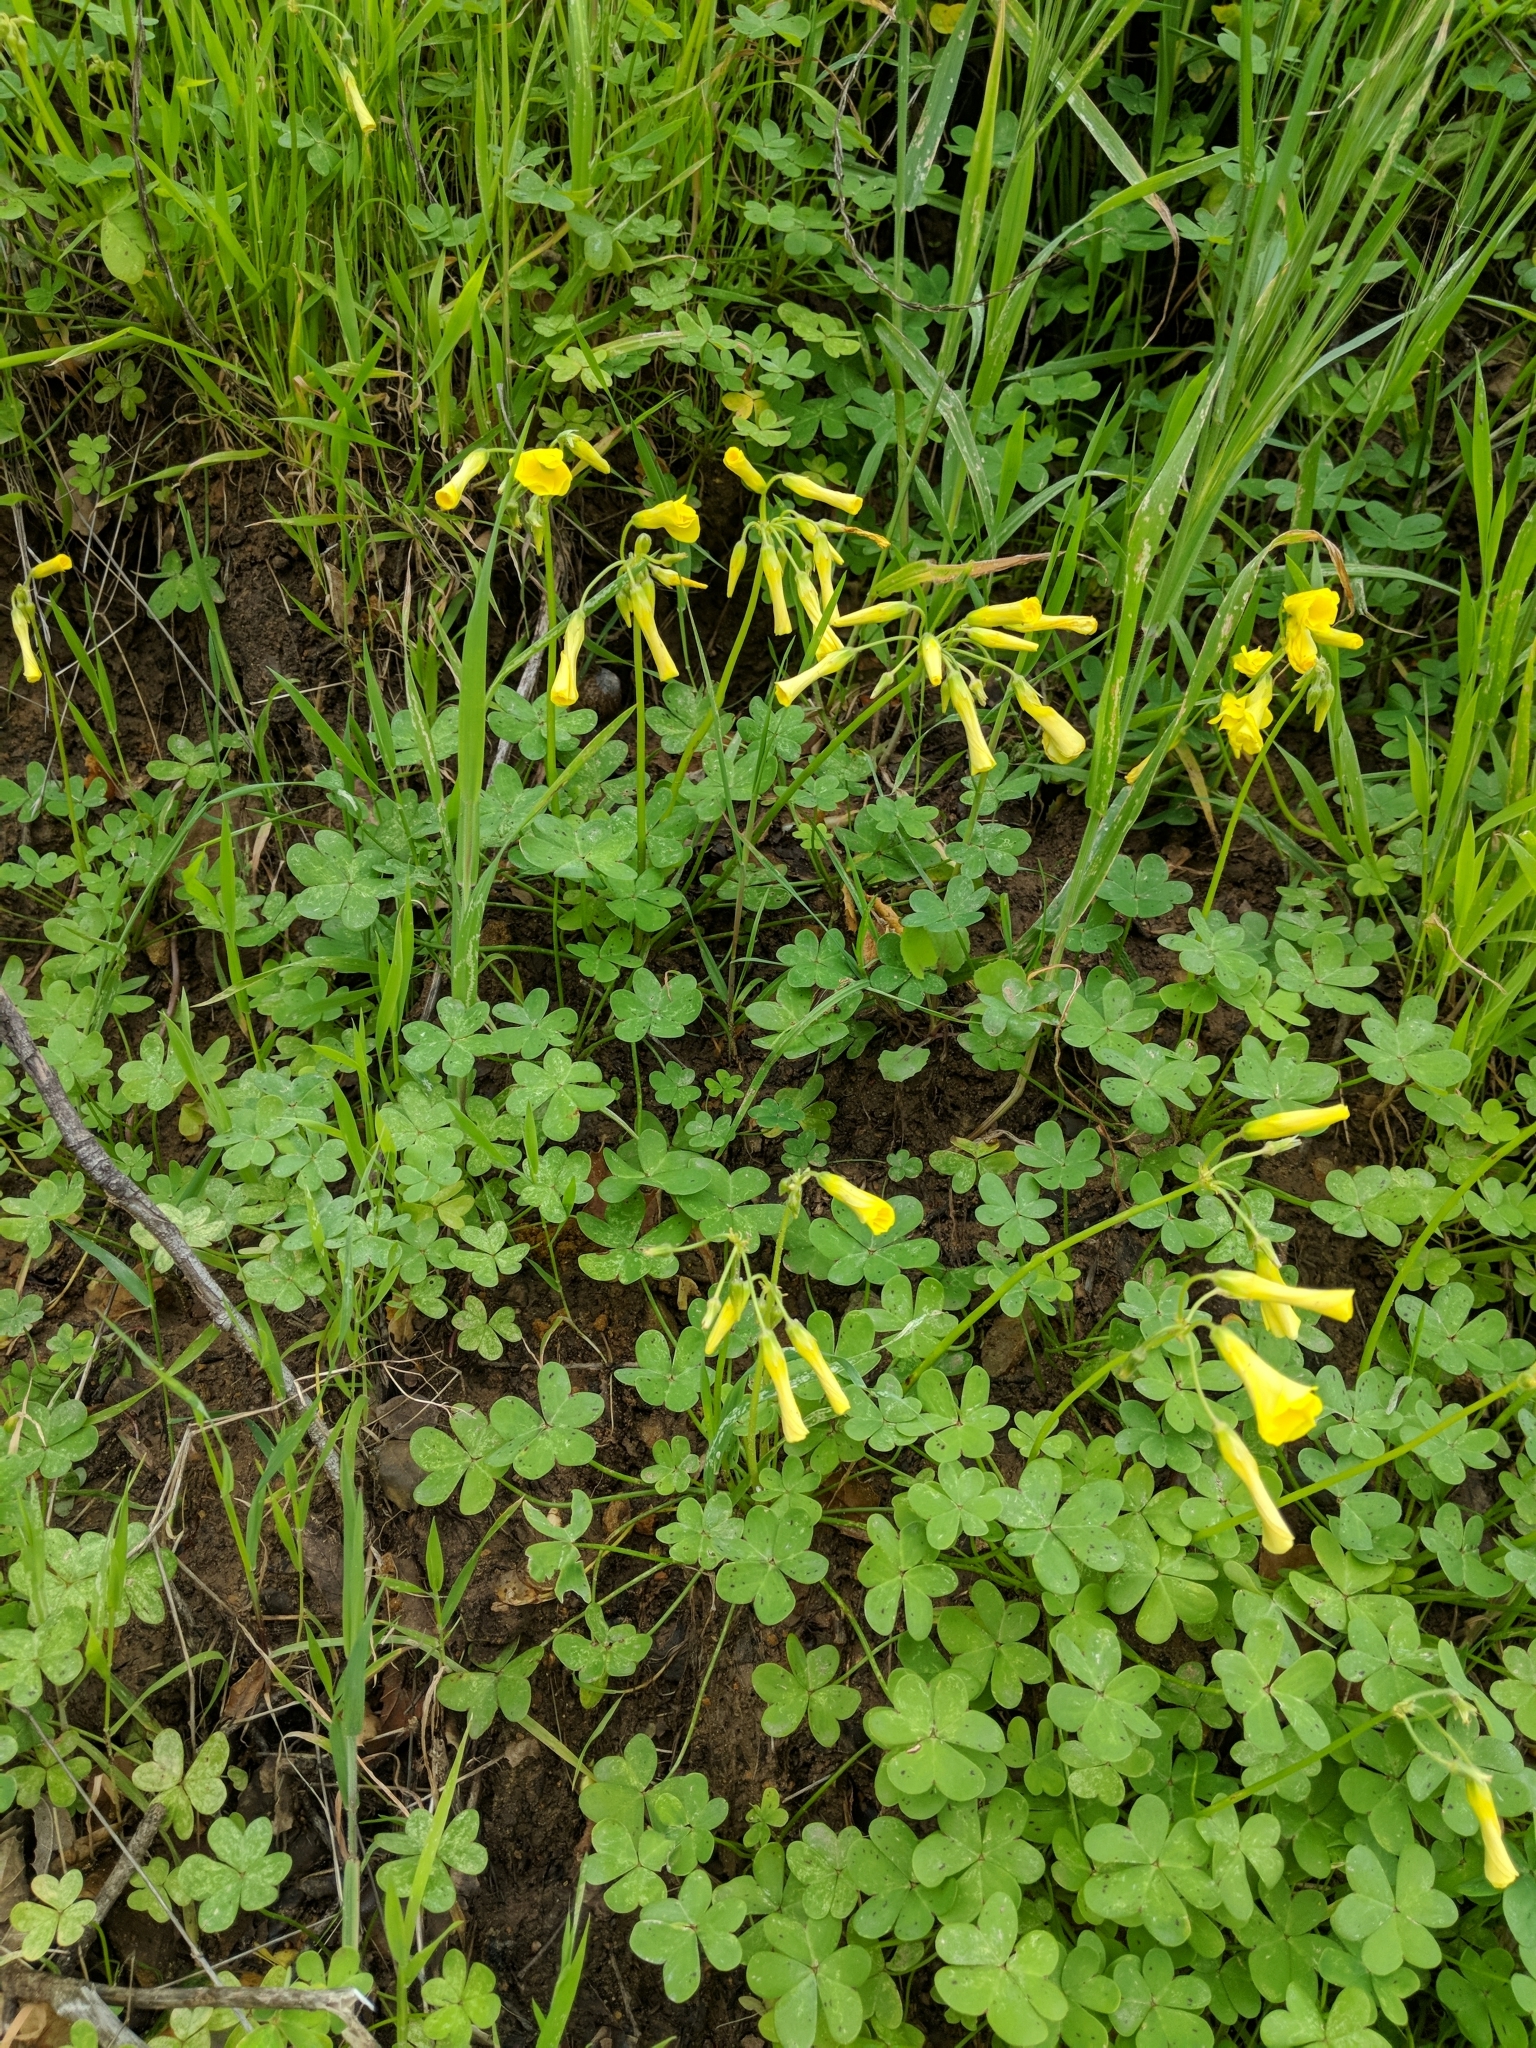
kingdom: Plantae
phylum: Tracheophyta
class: Magnoliopsida
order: Oxalidales
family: Oxalidaceae
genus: Oxalis
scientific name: Oxalis pes-caprae
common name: Bermuda-buttercup
